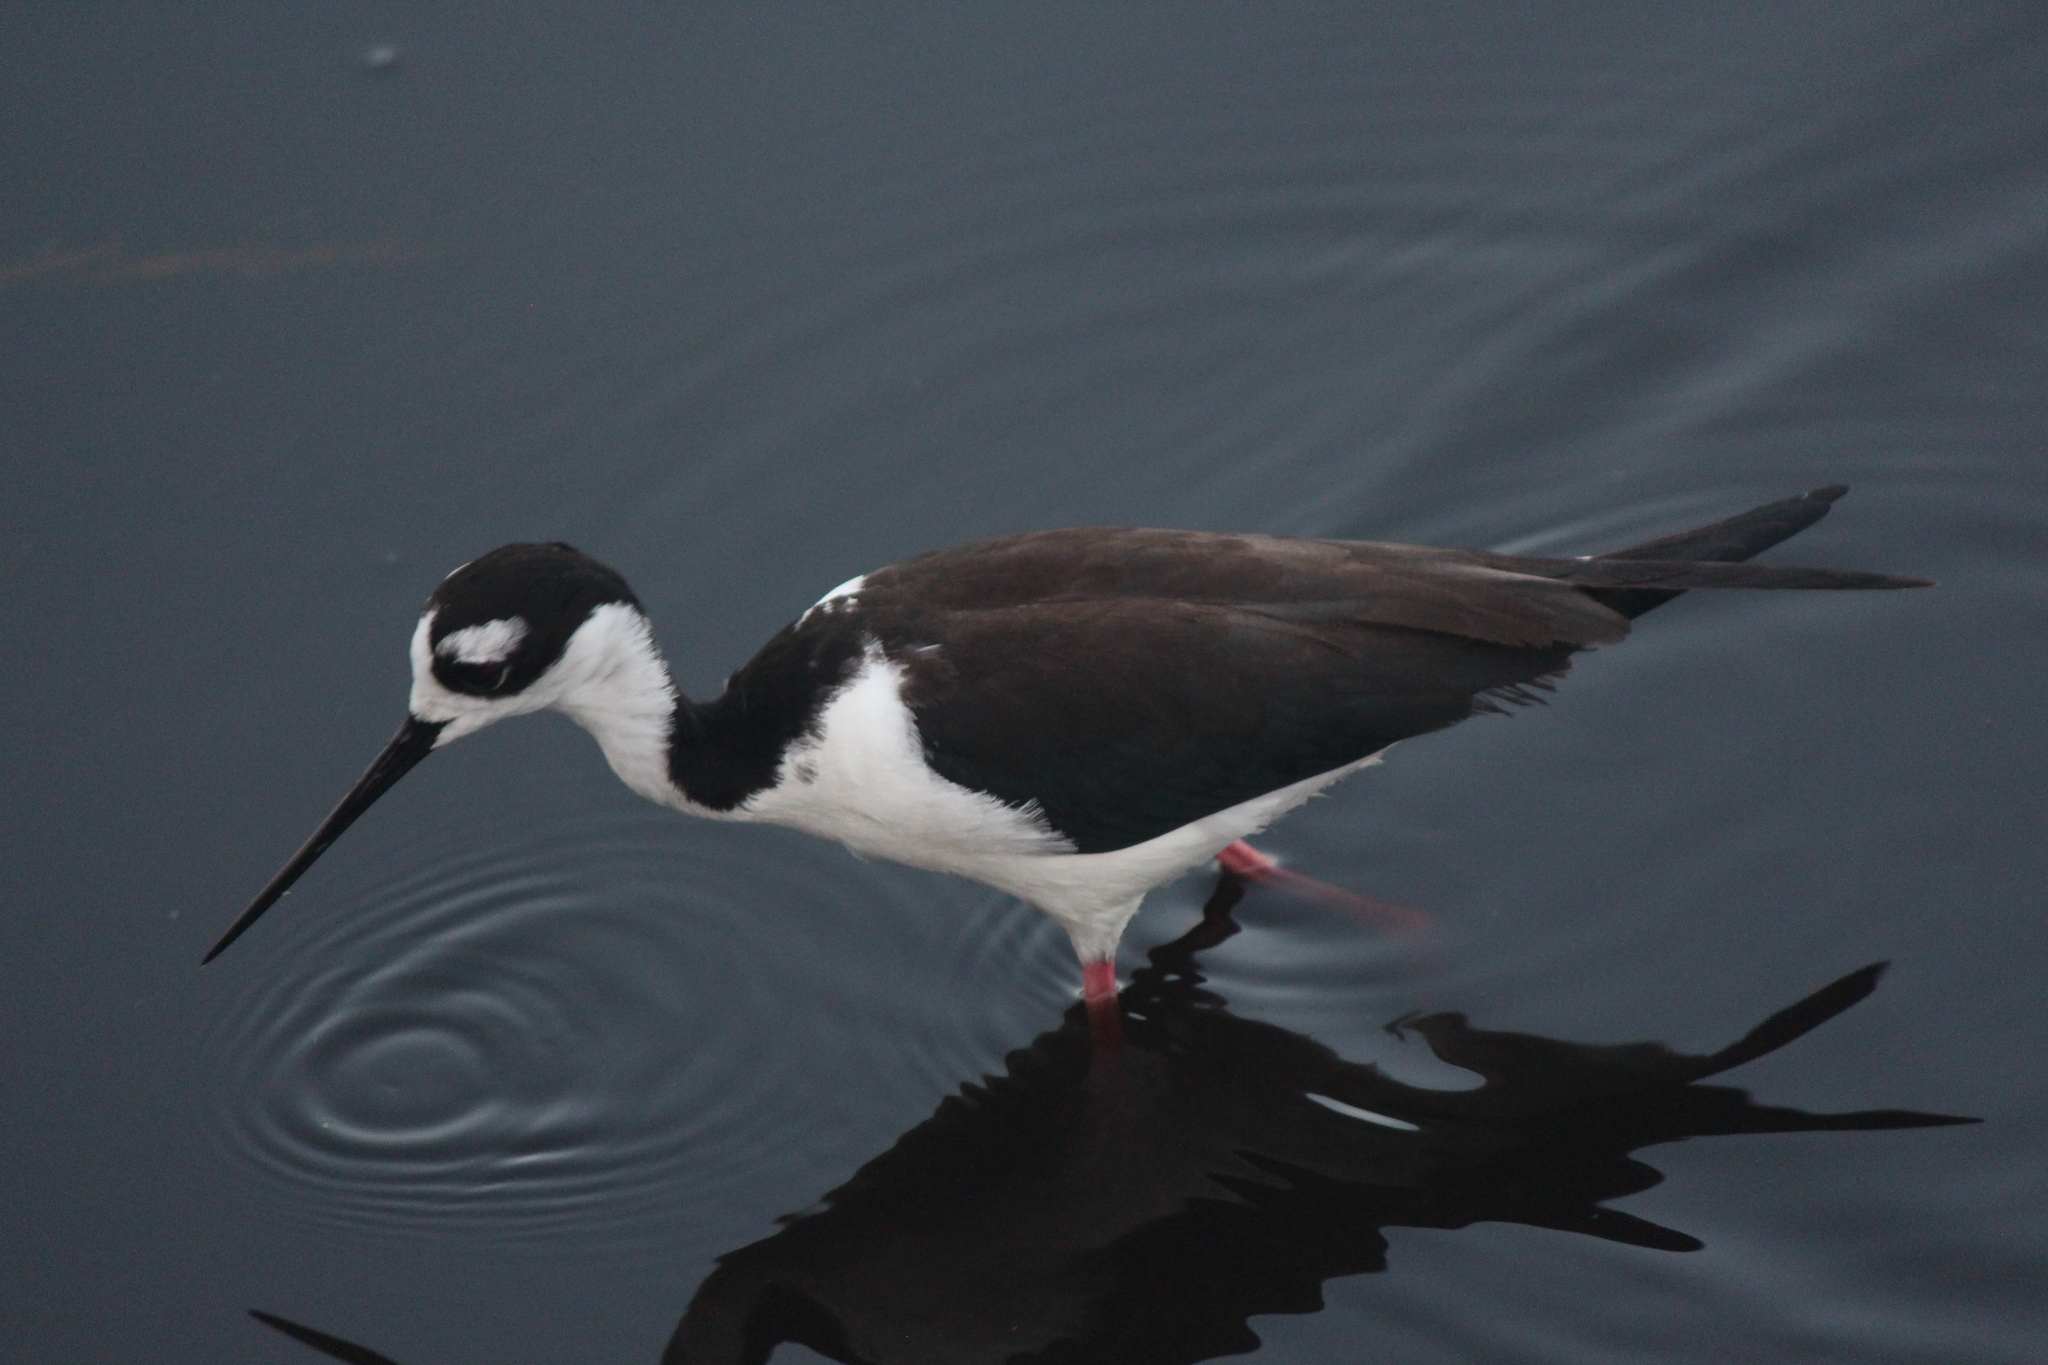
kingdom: Animalia
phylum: Chordata
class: Aves
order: Charadriiformes
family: Recurvirostridae
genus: Himantopus
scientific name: Himantopus mexicanus
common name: Black-necked stilt
